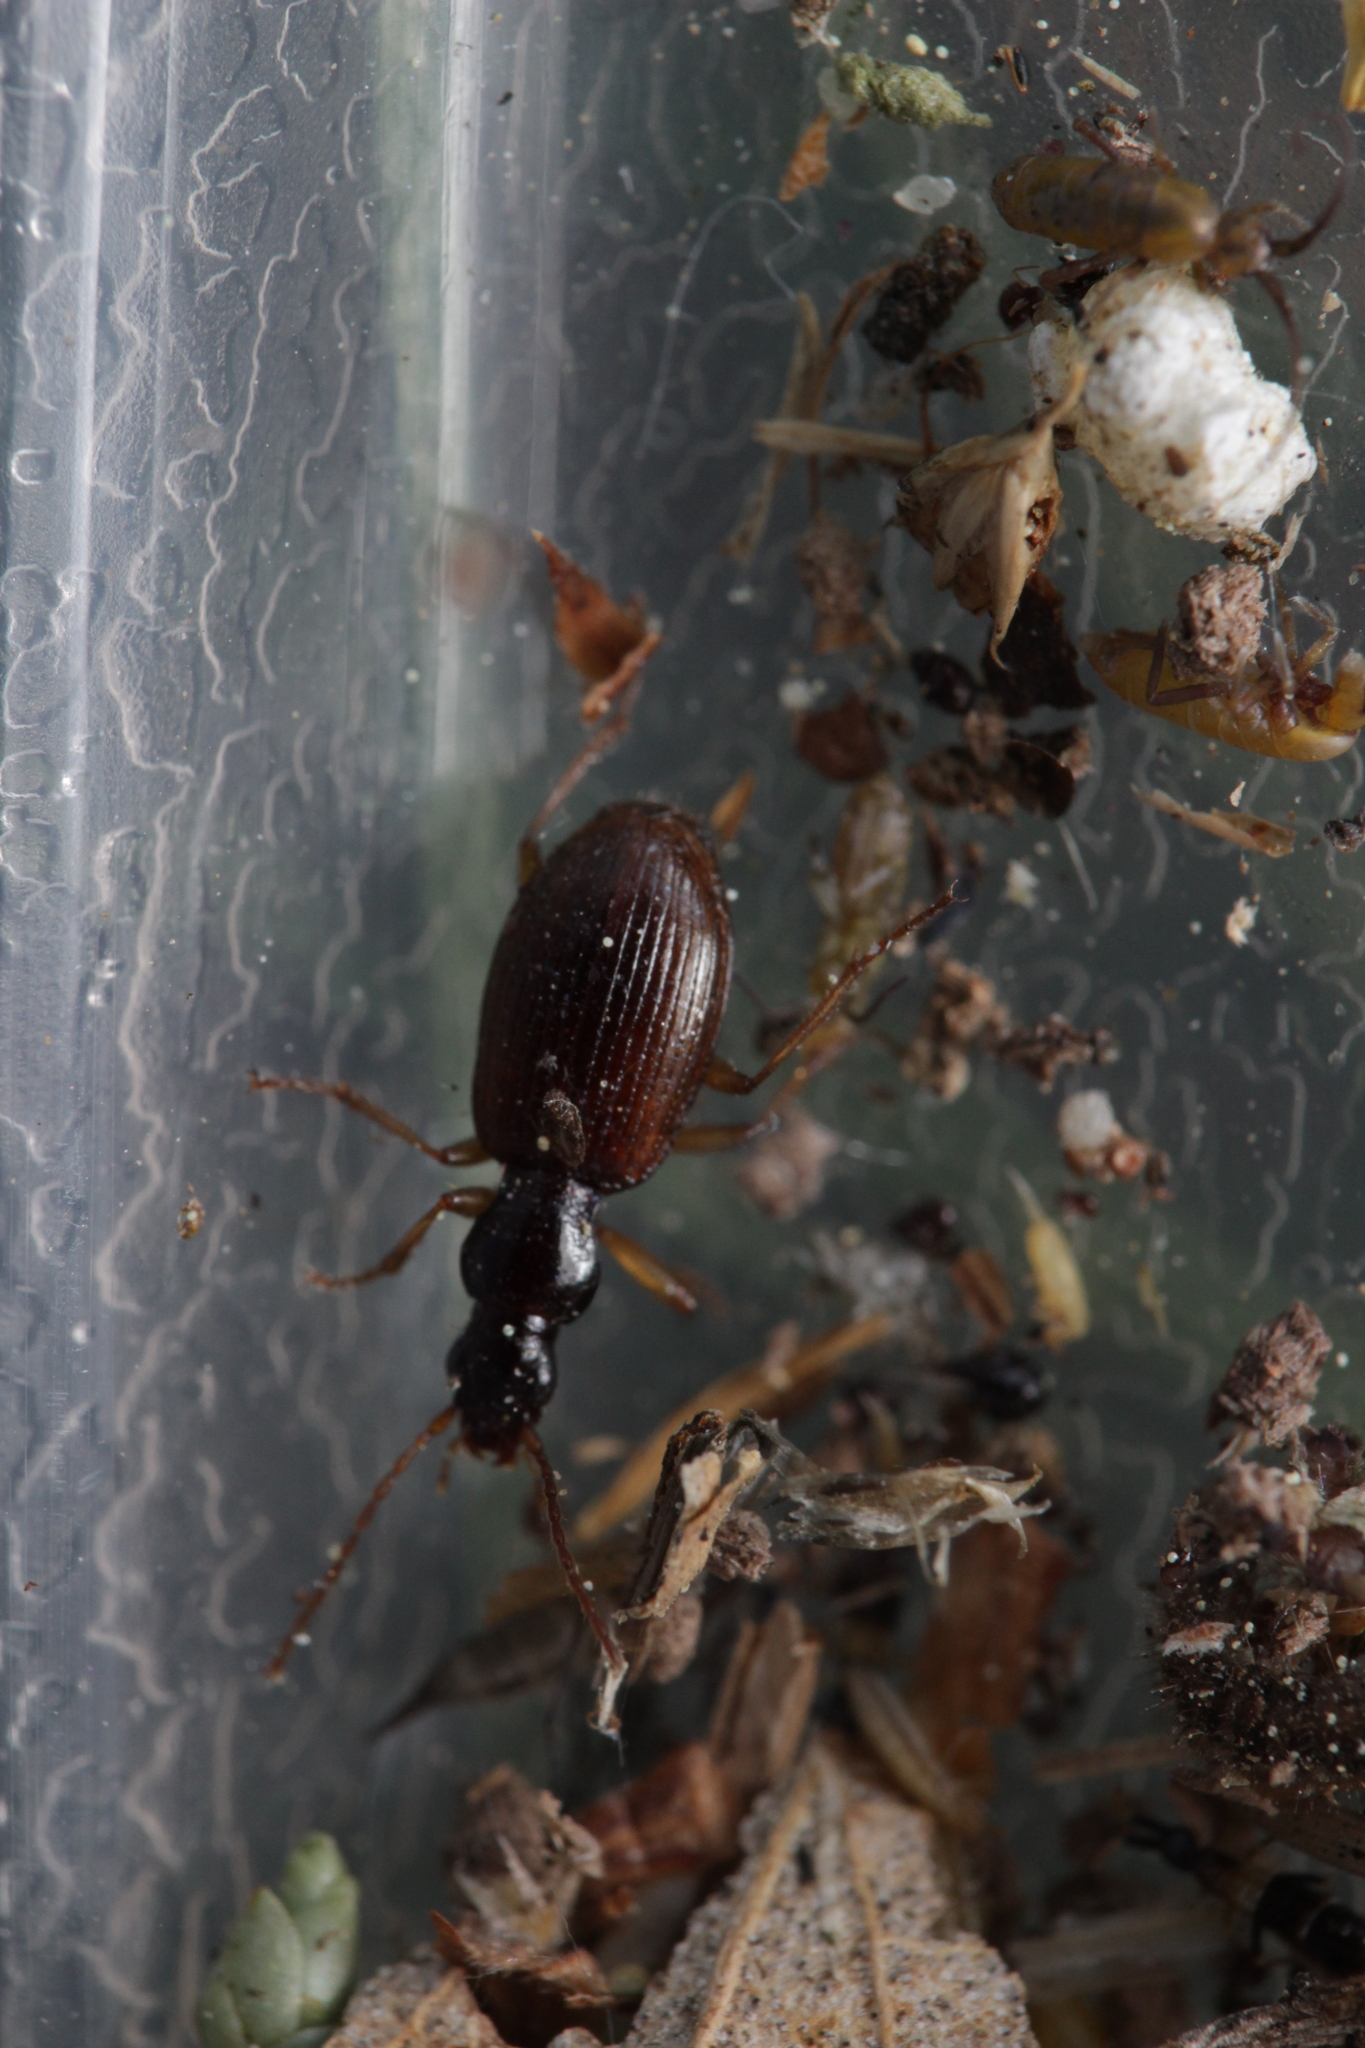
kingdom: Animalia
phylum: Arthropoda
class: Insecta
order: Coleoptera
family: Carabidae
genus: Oxypselaphus
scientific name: Oxypselaphus obscurus
